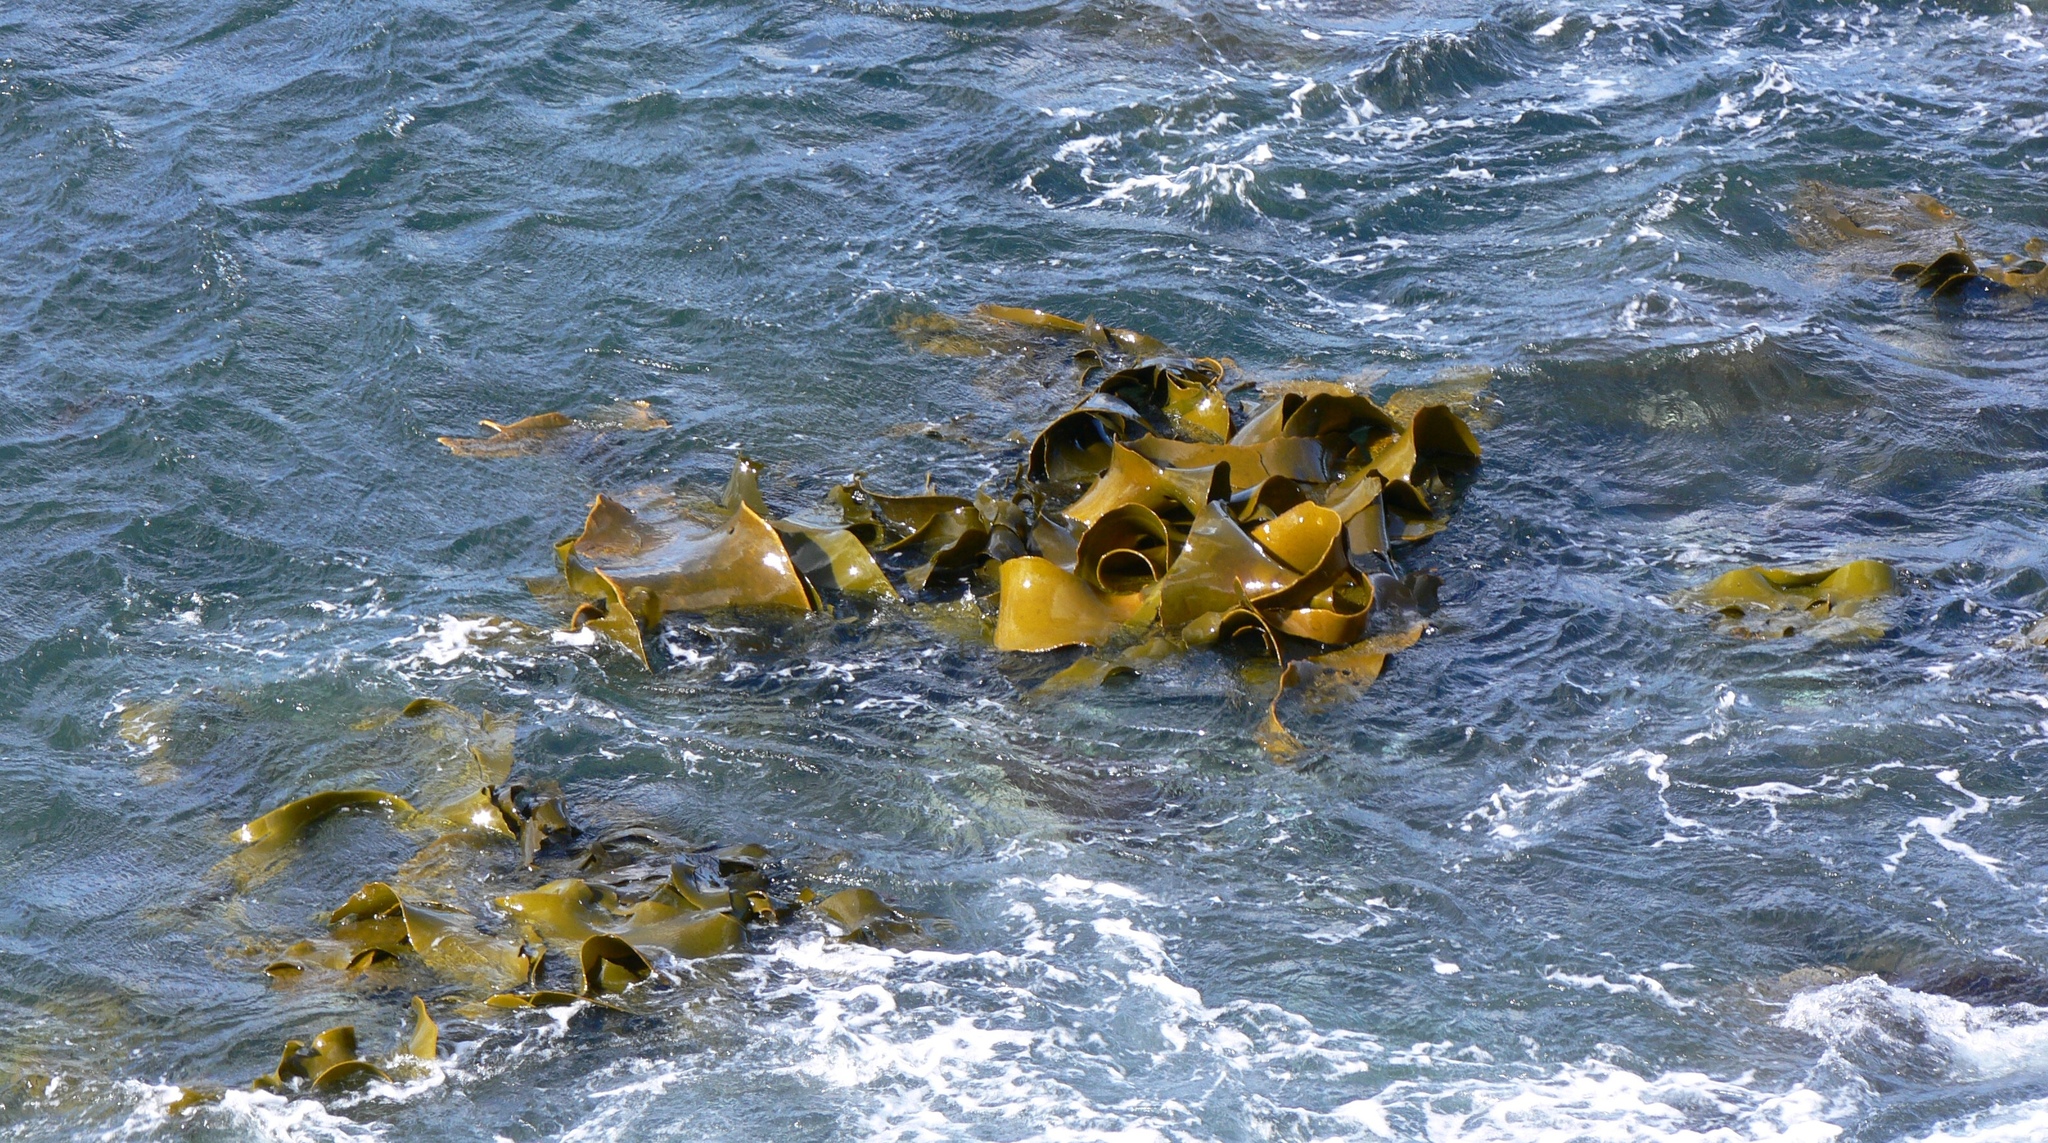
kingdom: Chromista
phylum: Ochrophyta
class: Phaeophyceae
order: Fucales
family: Durvillaeaceae
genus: Durvillaea
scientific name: Durvillaea poha
